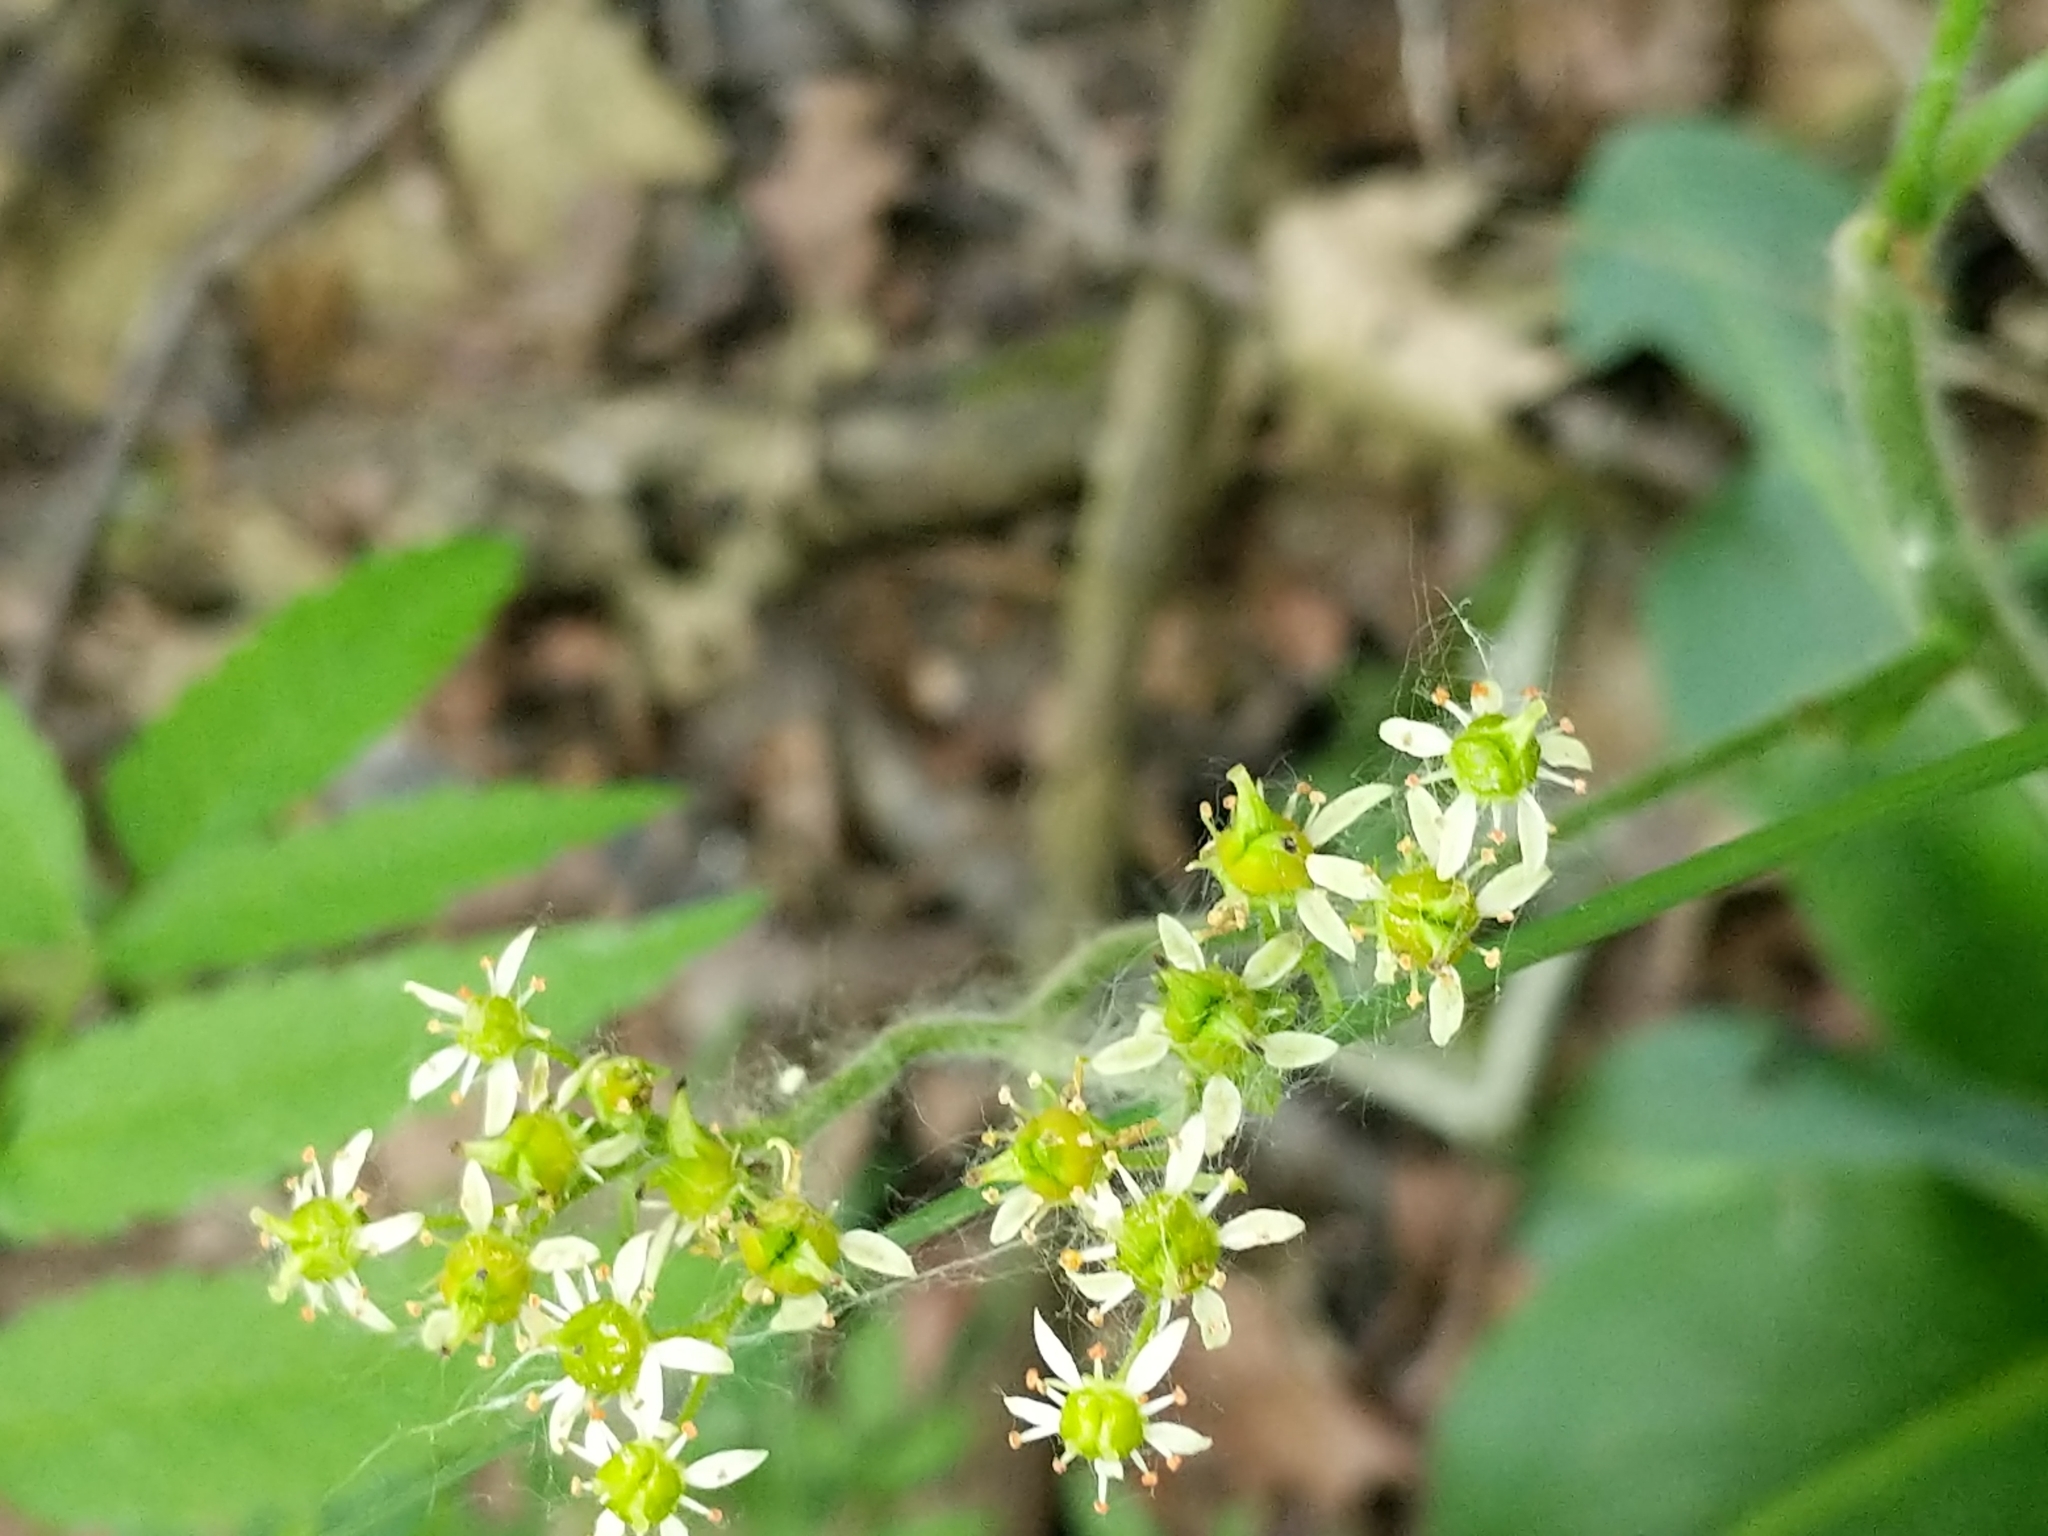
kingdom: Plantae
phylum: Tracheophyta
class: Magnoliopsida
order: Saxifragales
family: Saxifragaceae
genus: Micranthes
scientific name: Micranthes pensylvanica
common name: Marsh saxifrage
